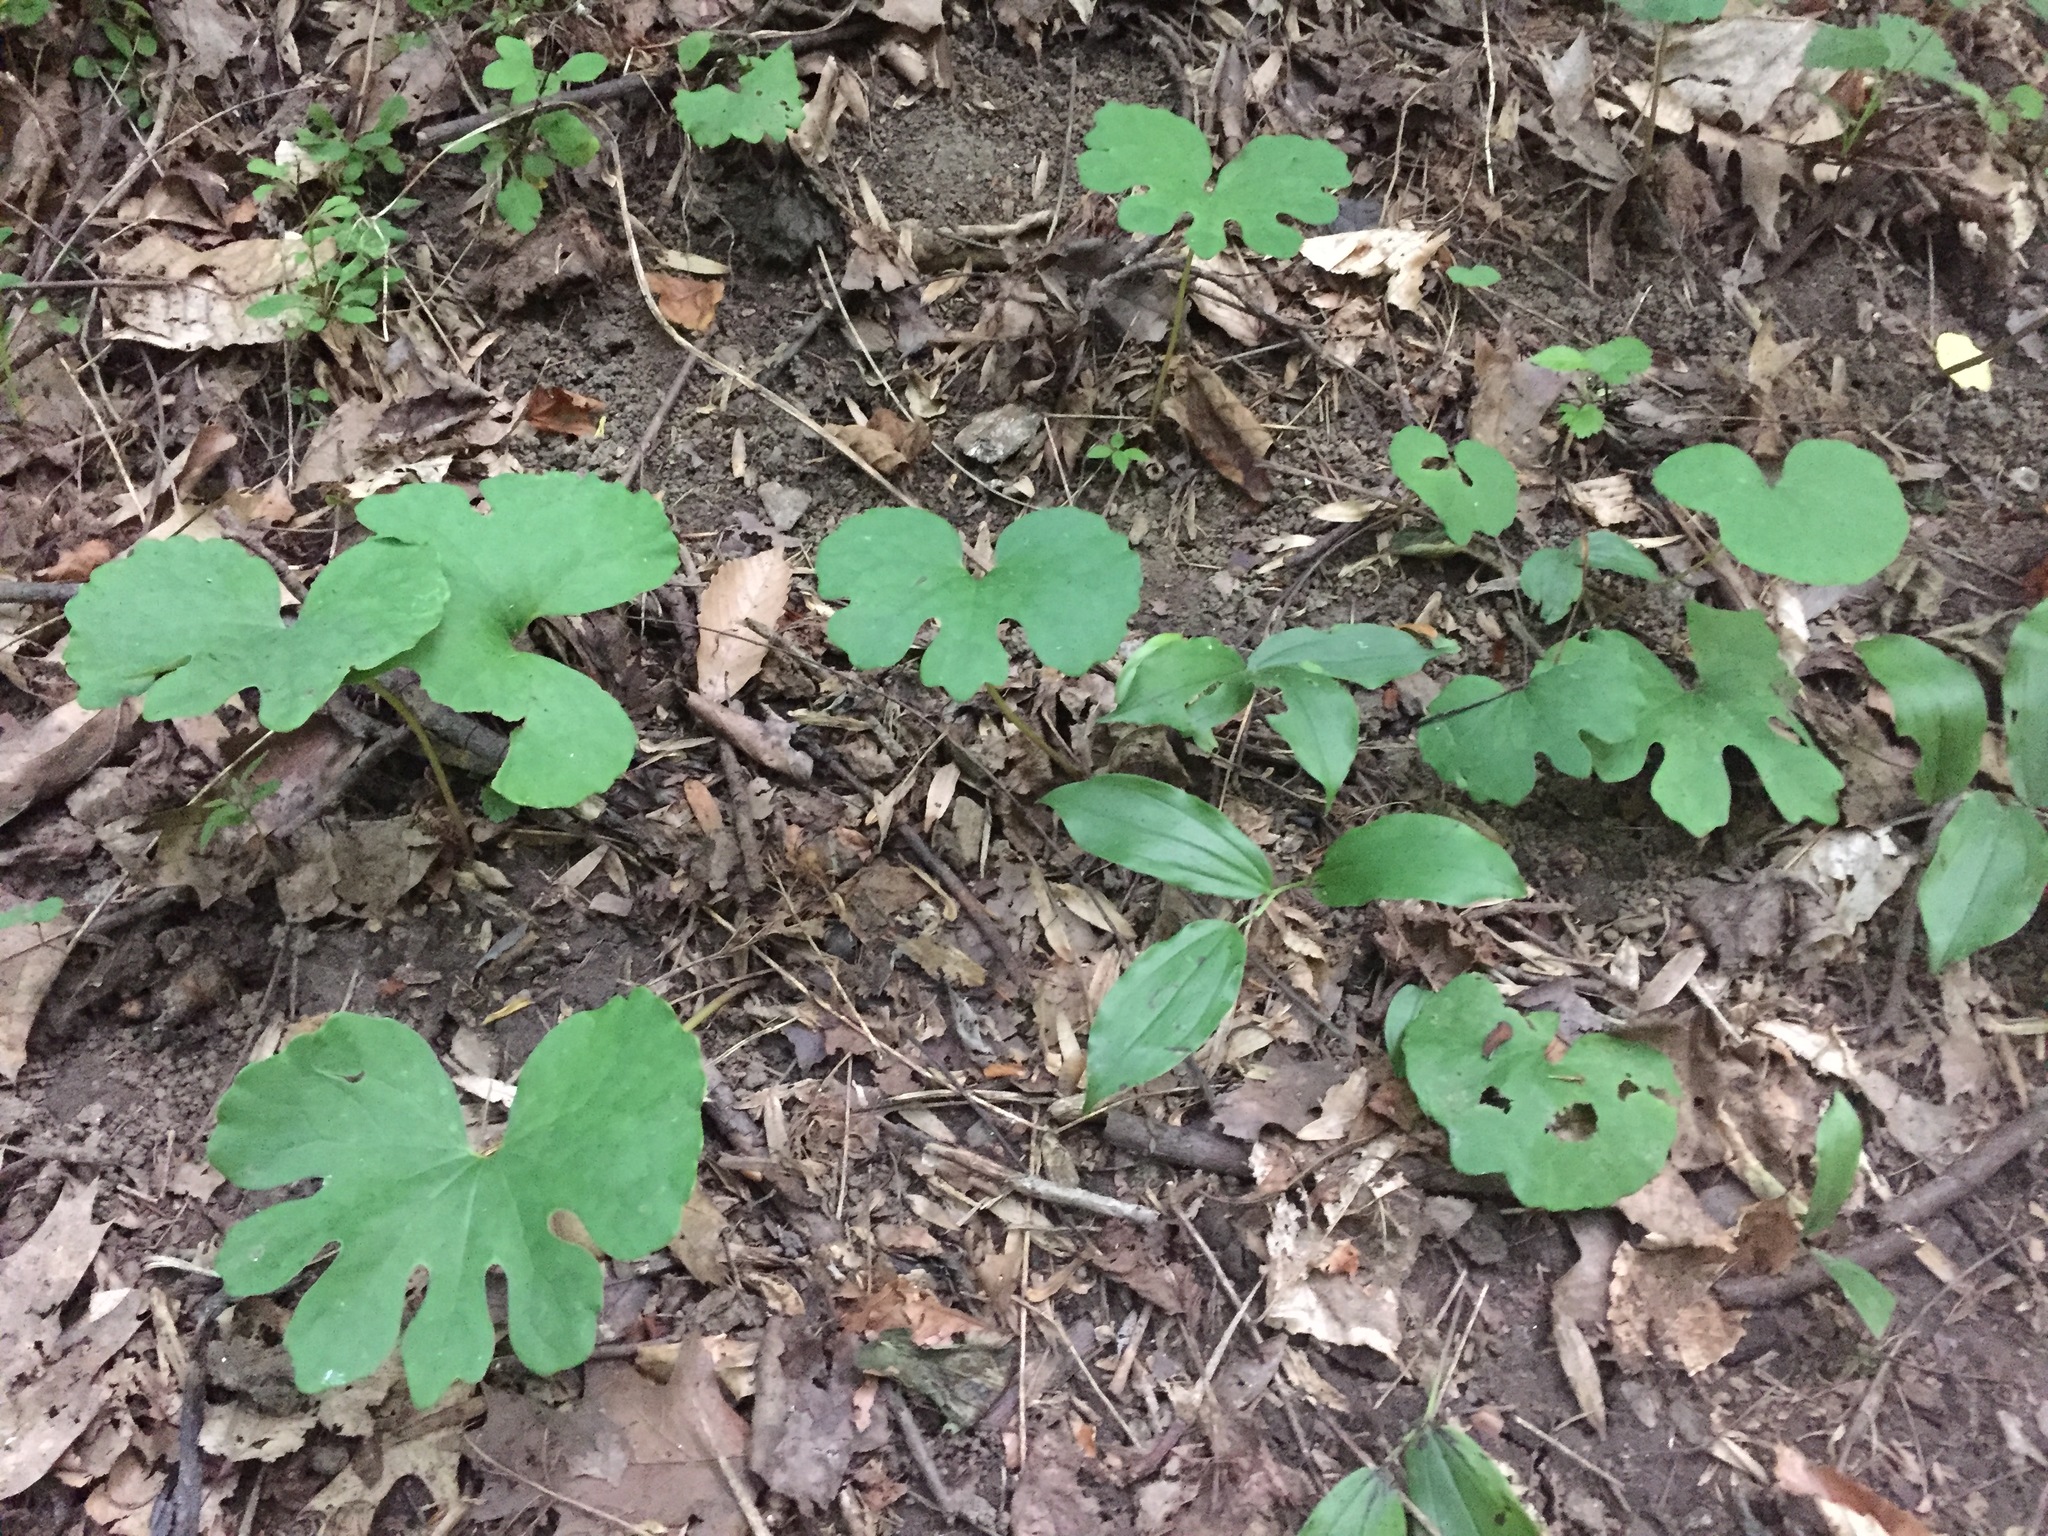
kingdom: Plantae
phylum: Tracheophyta
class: Magnoliopsida
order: Ranunculales
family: Papaveraceae
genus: Sanguinaria
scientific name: Sanguinaria canadensis
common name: Bloodroot
